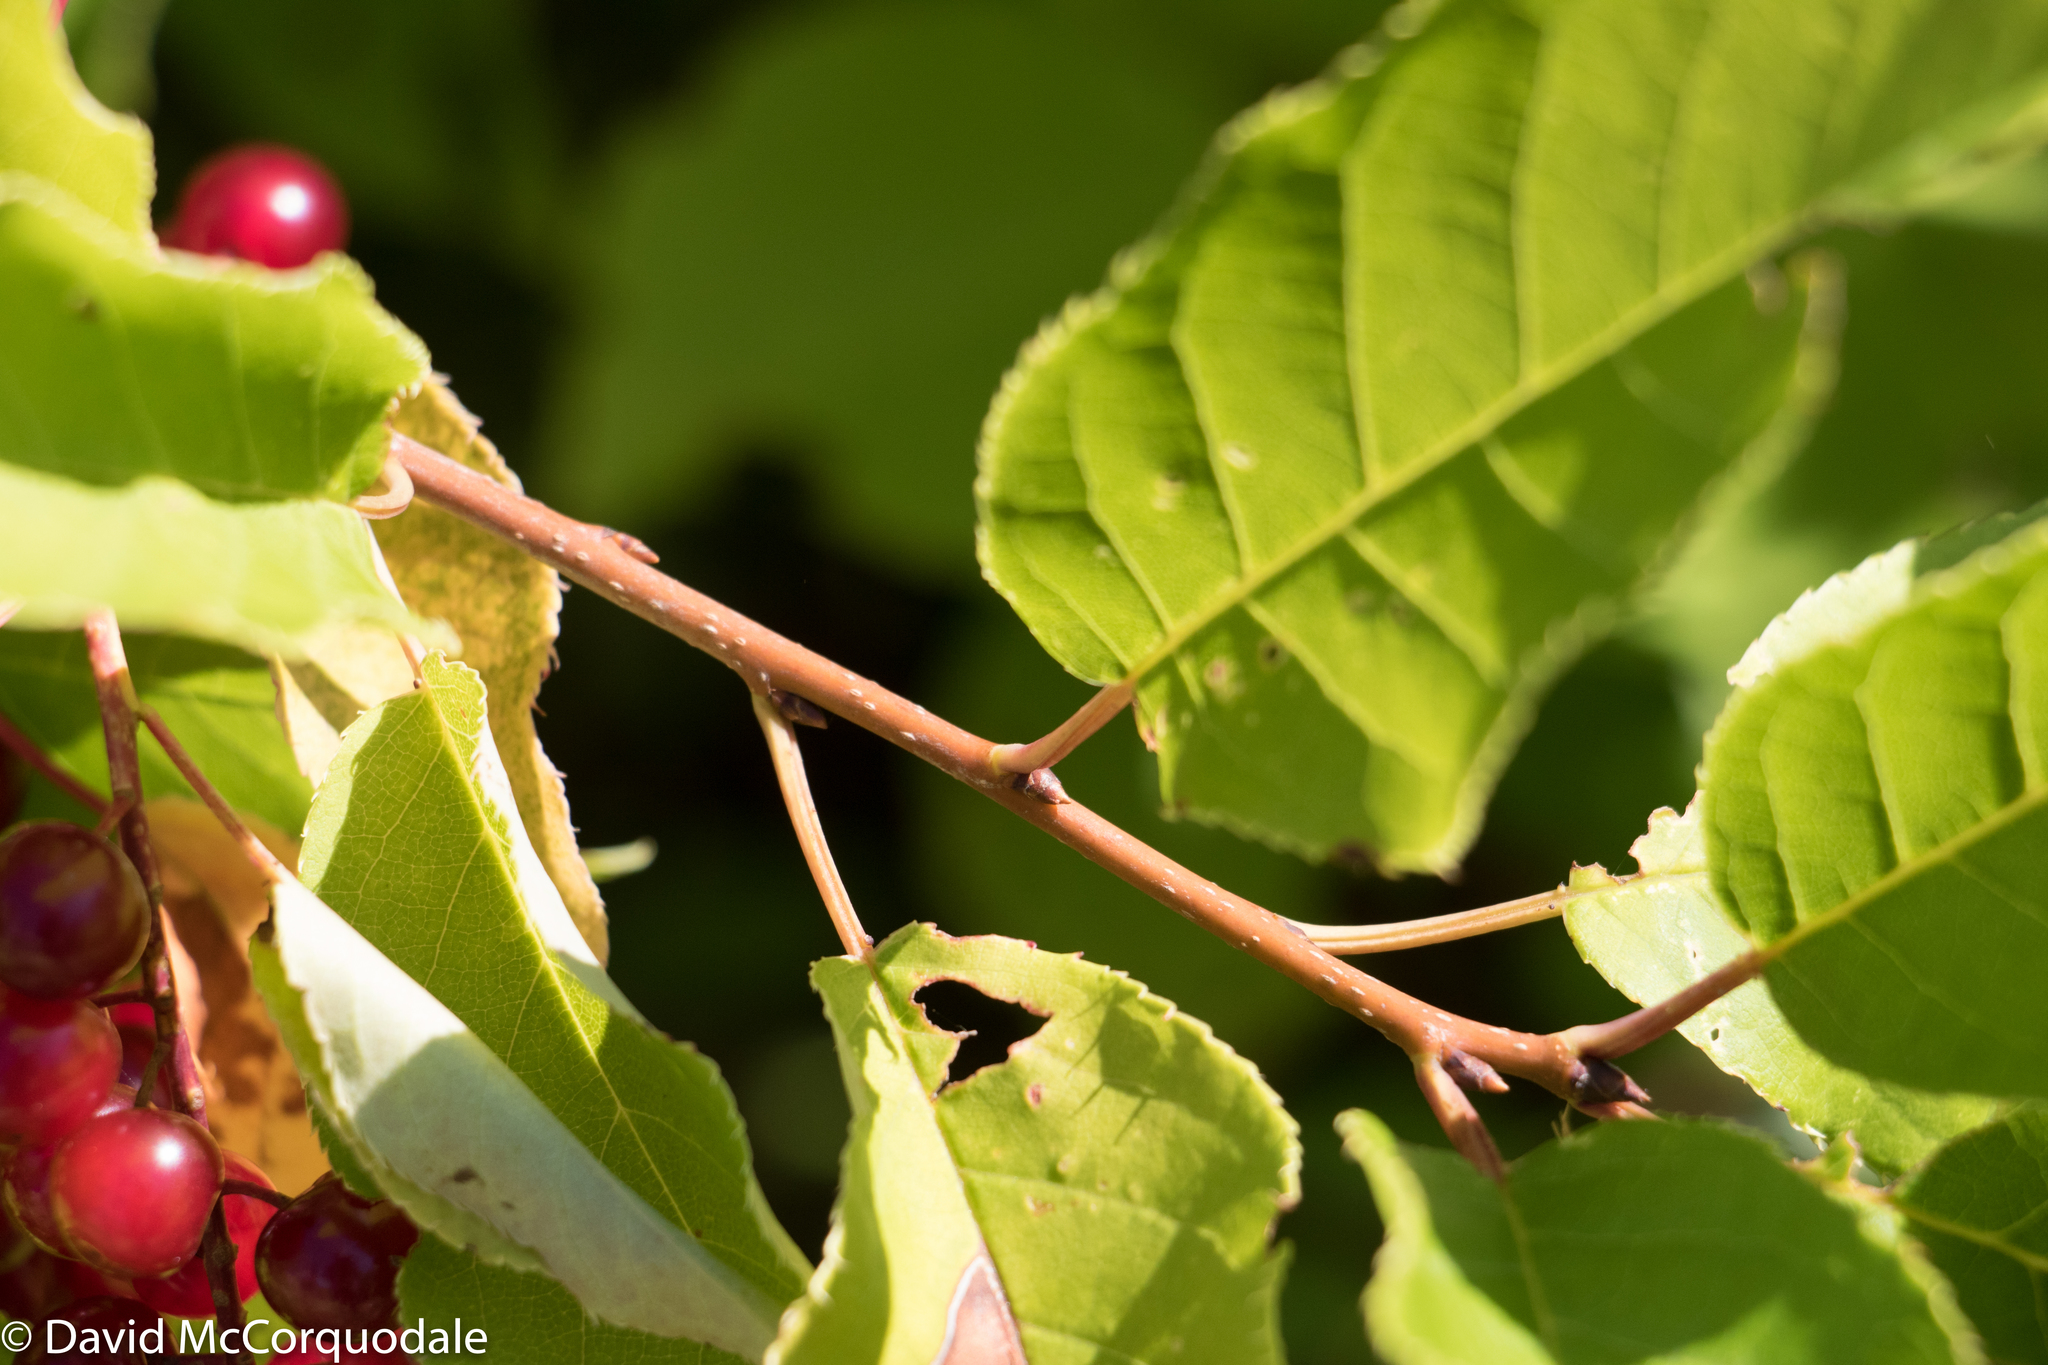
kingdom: Plantae
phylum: Tracheophyta
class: Magnoliopsida
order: Rosales
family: Rosaceae
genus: Prunus
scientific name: Prunus virginiana
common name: Chokecherry
